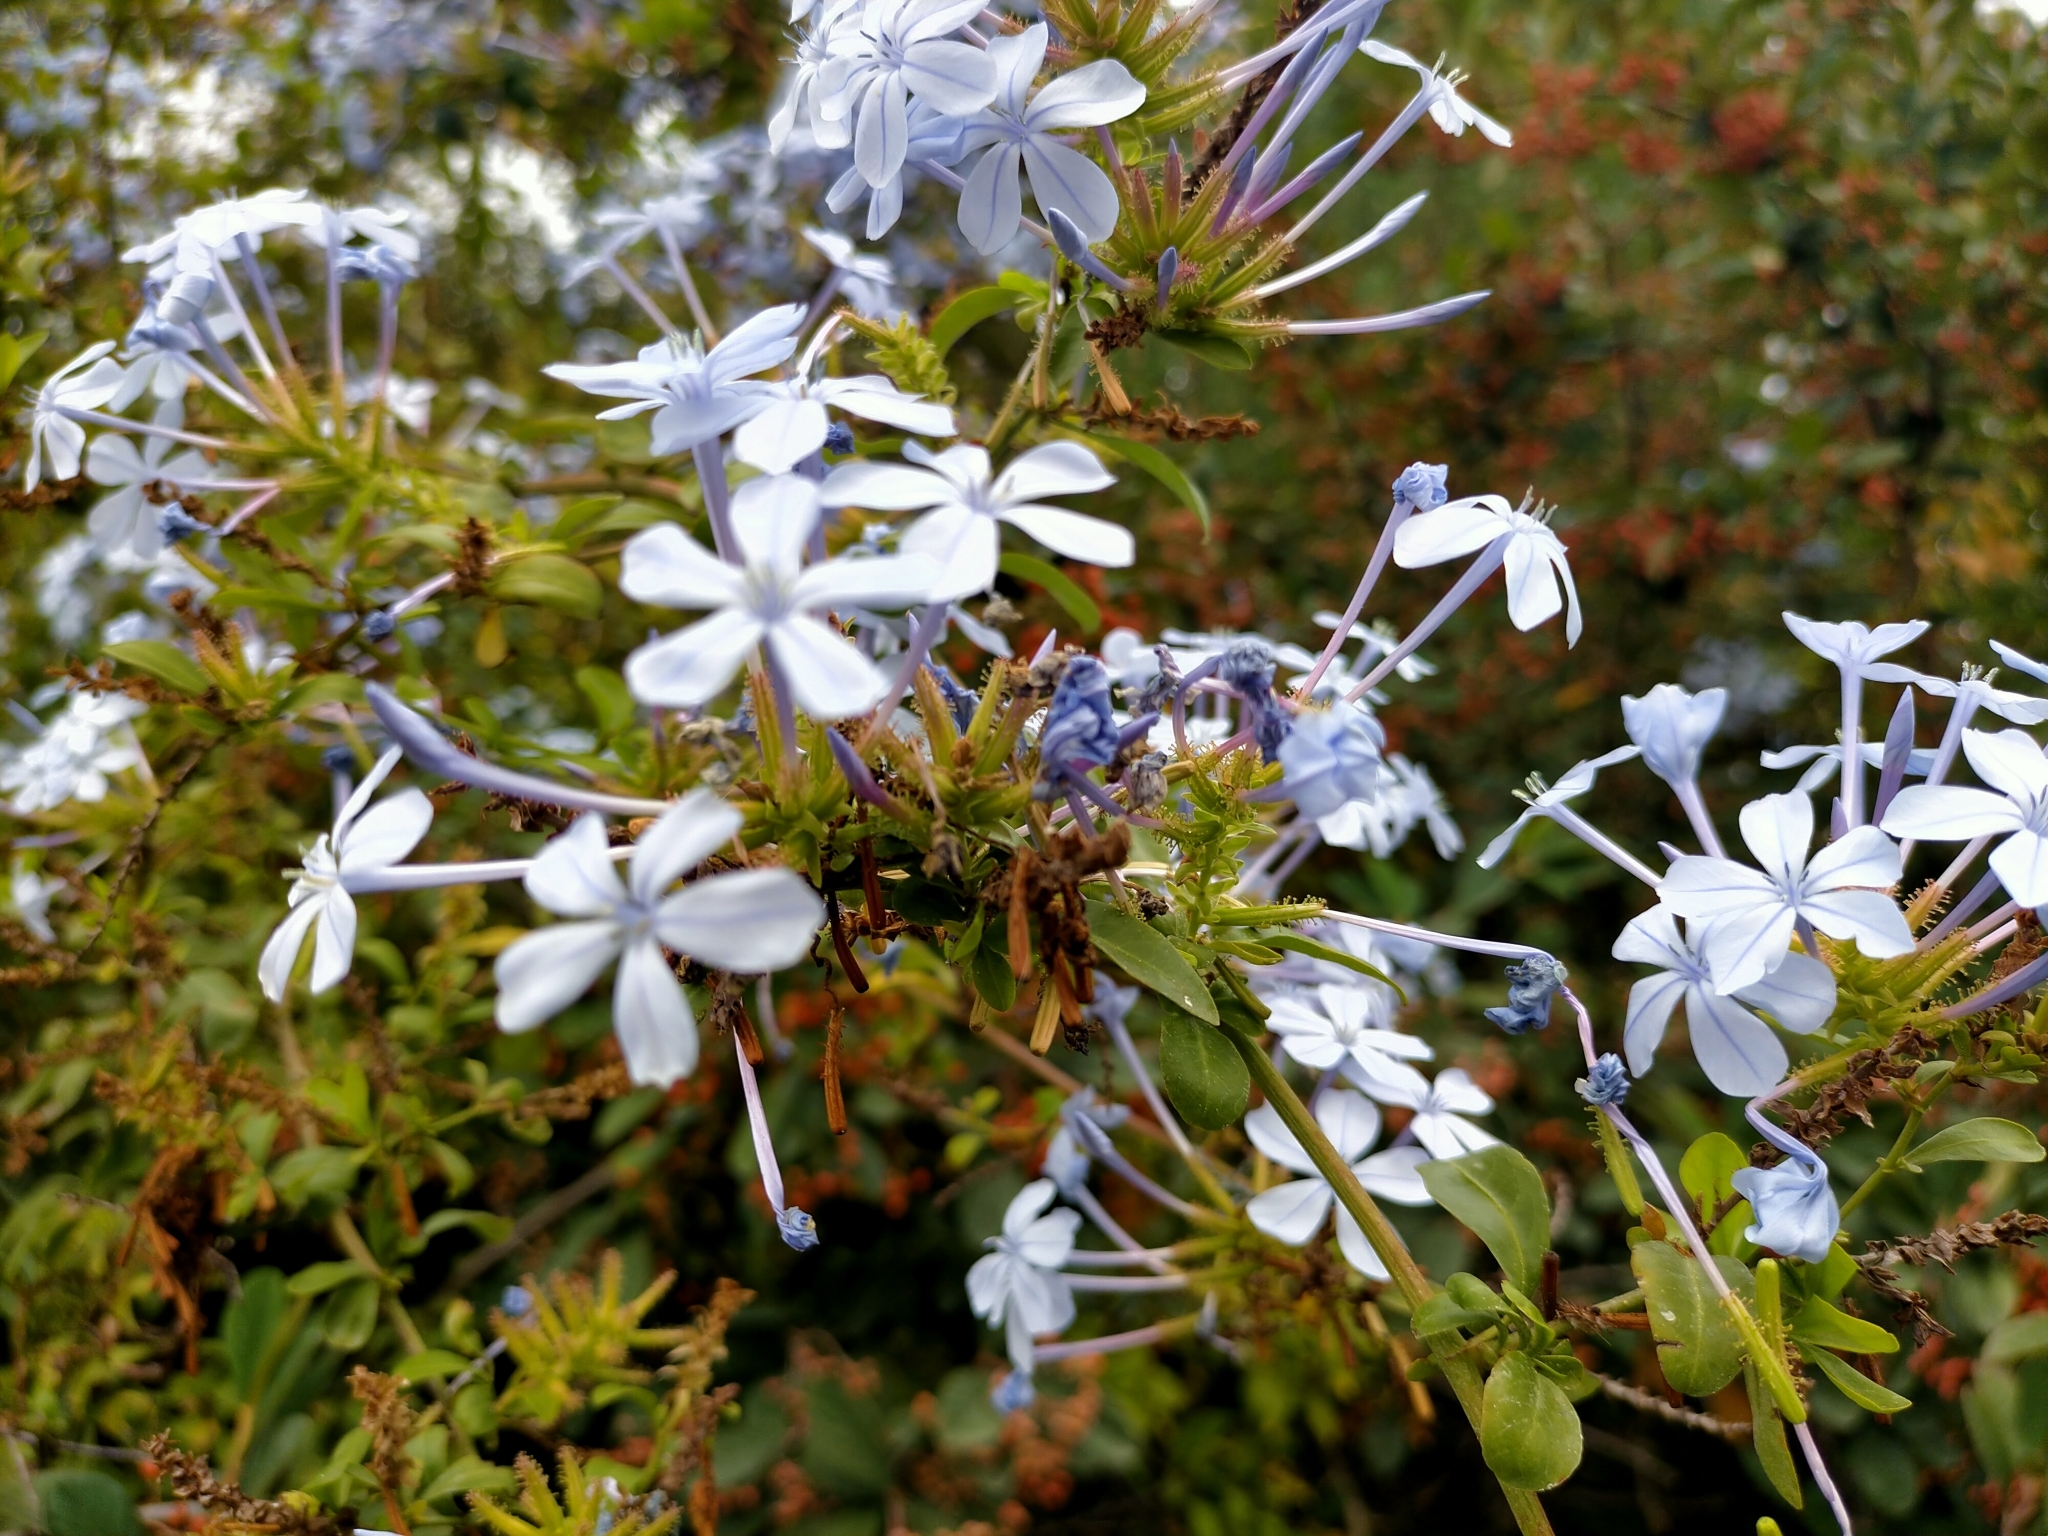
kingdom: Plantae
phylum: Tracheophyta
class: Magnoliopsida
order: Caryophyllales
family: Plumbaginaceae
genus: Plumbago
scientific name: Plumbago auriculata
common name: Cape leadwort
